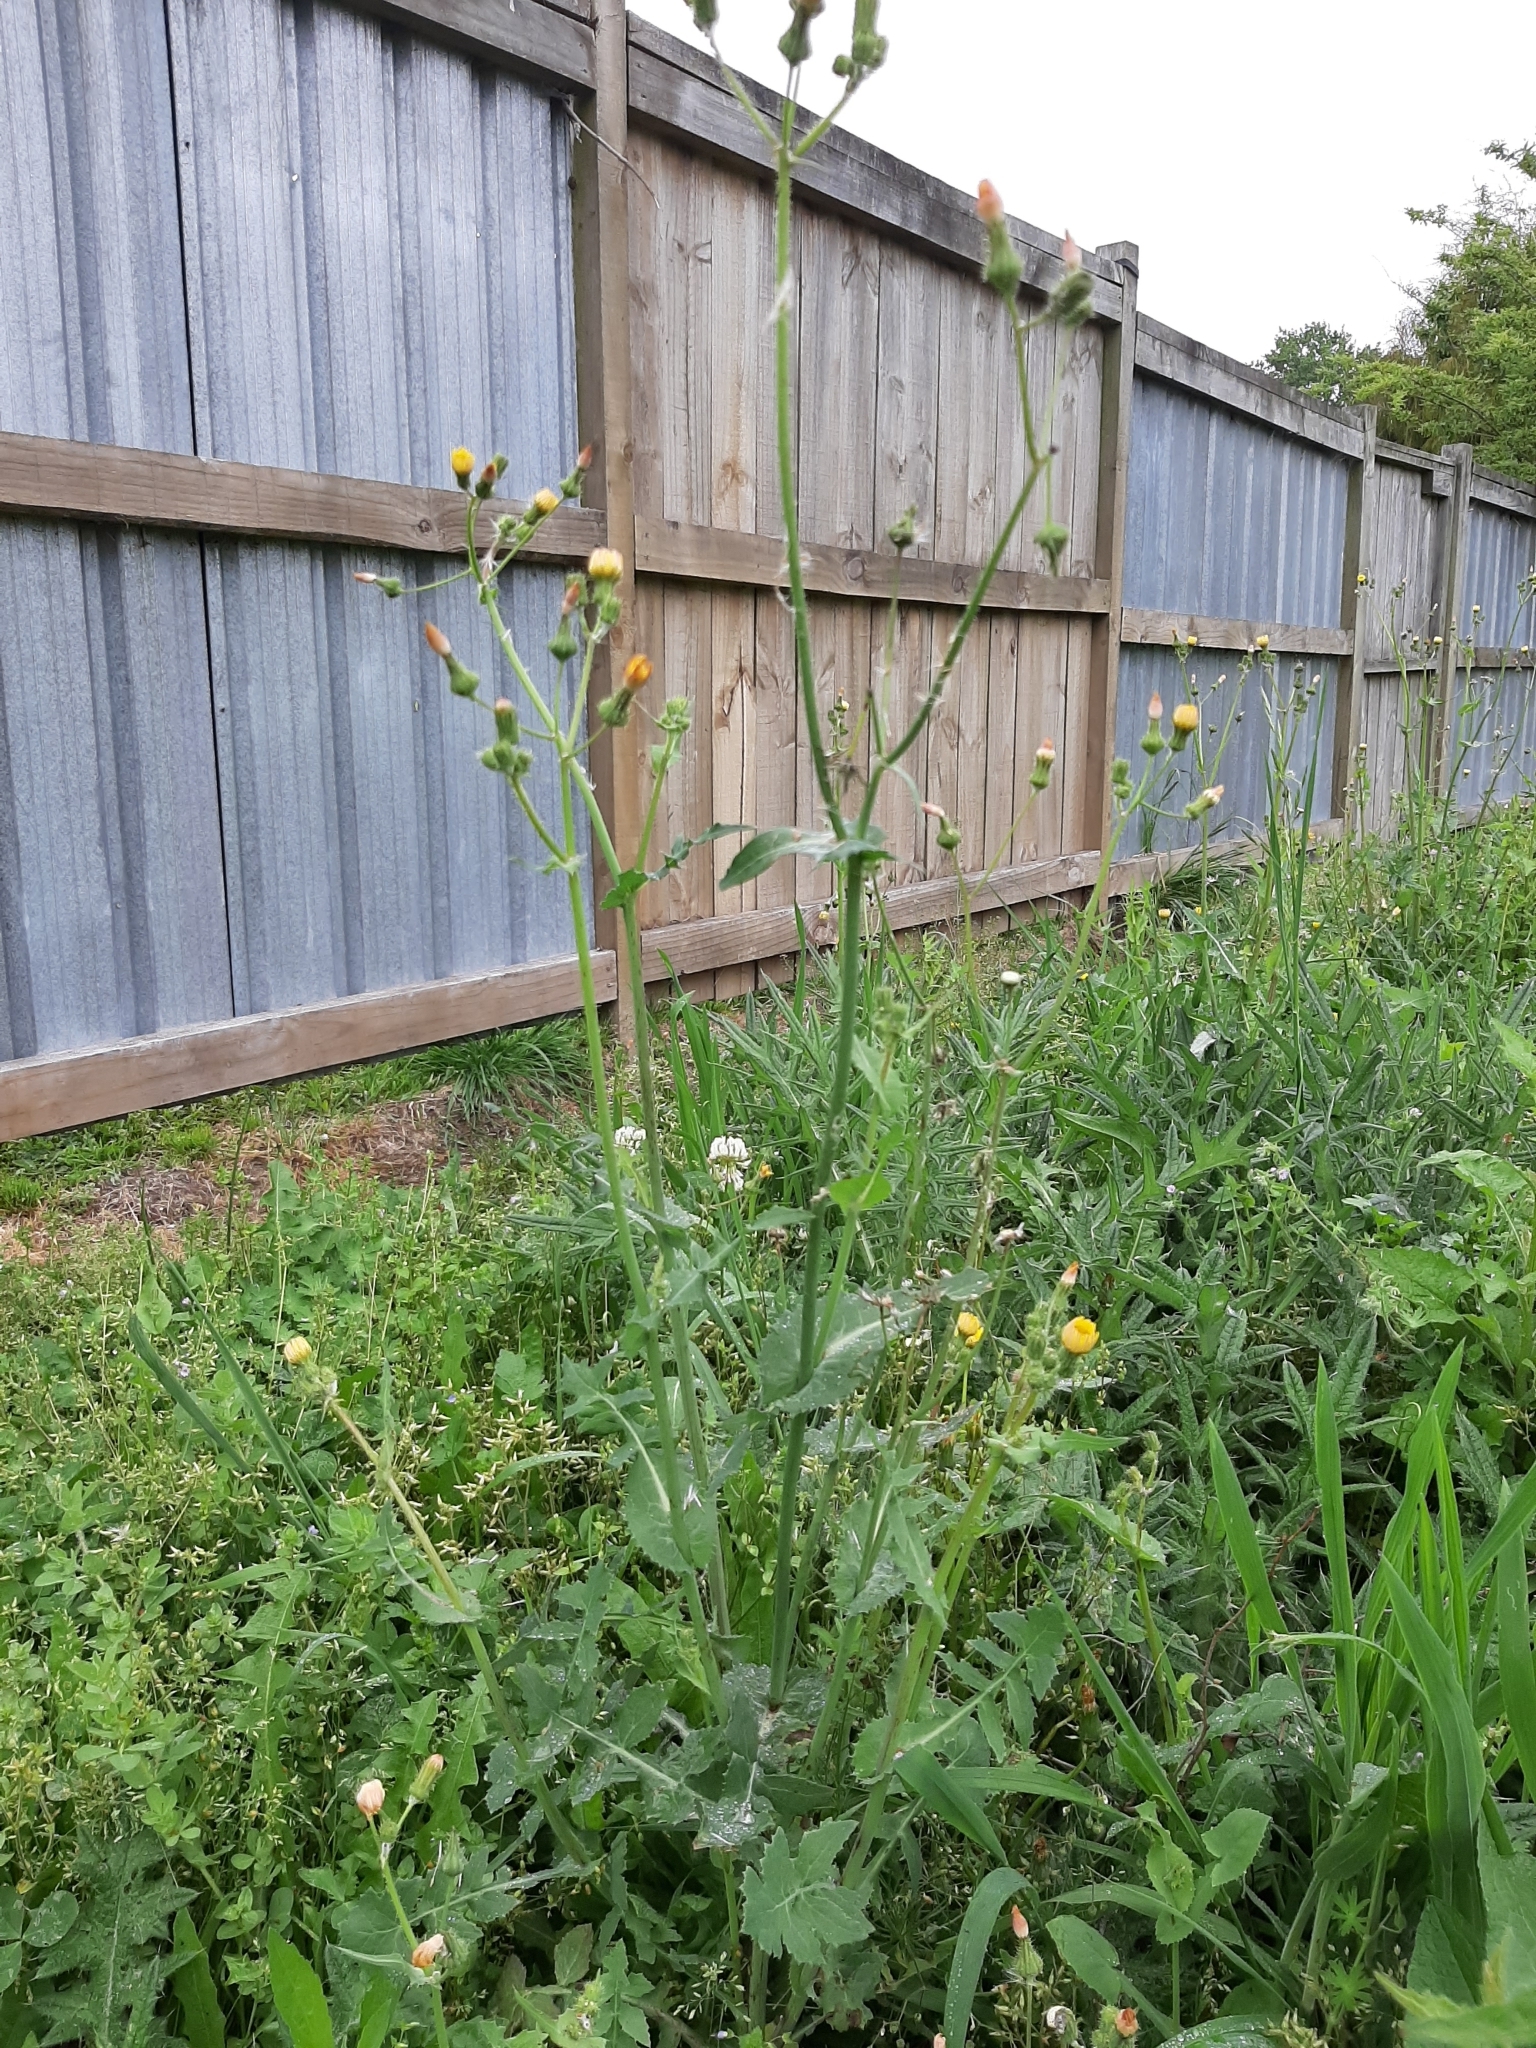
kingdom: Plantae
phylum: Tracheophyta
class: Magnoliopsida
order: Asterales
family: Asteraceae
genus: Sonchus
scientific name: Sonchus oleraceus
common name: Common sowthistle
